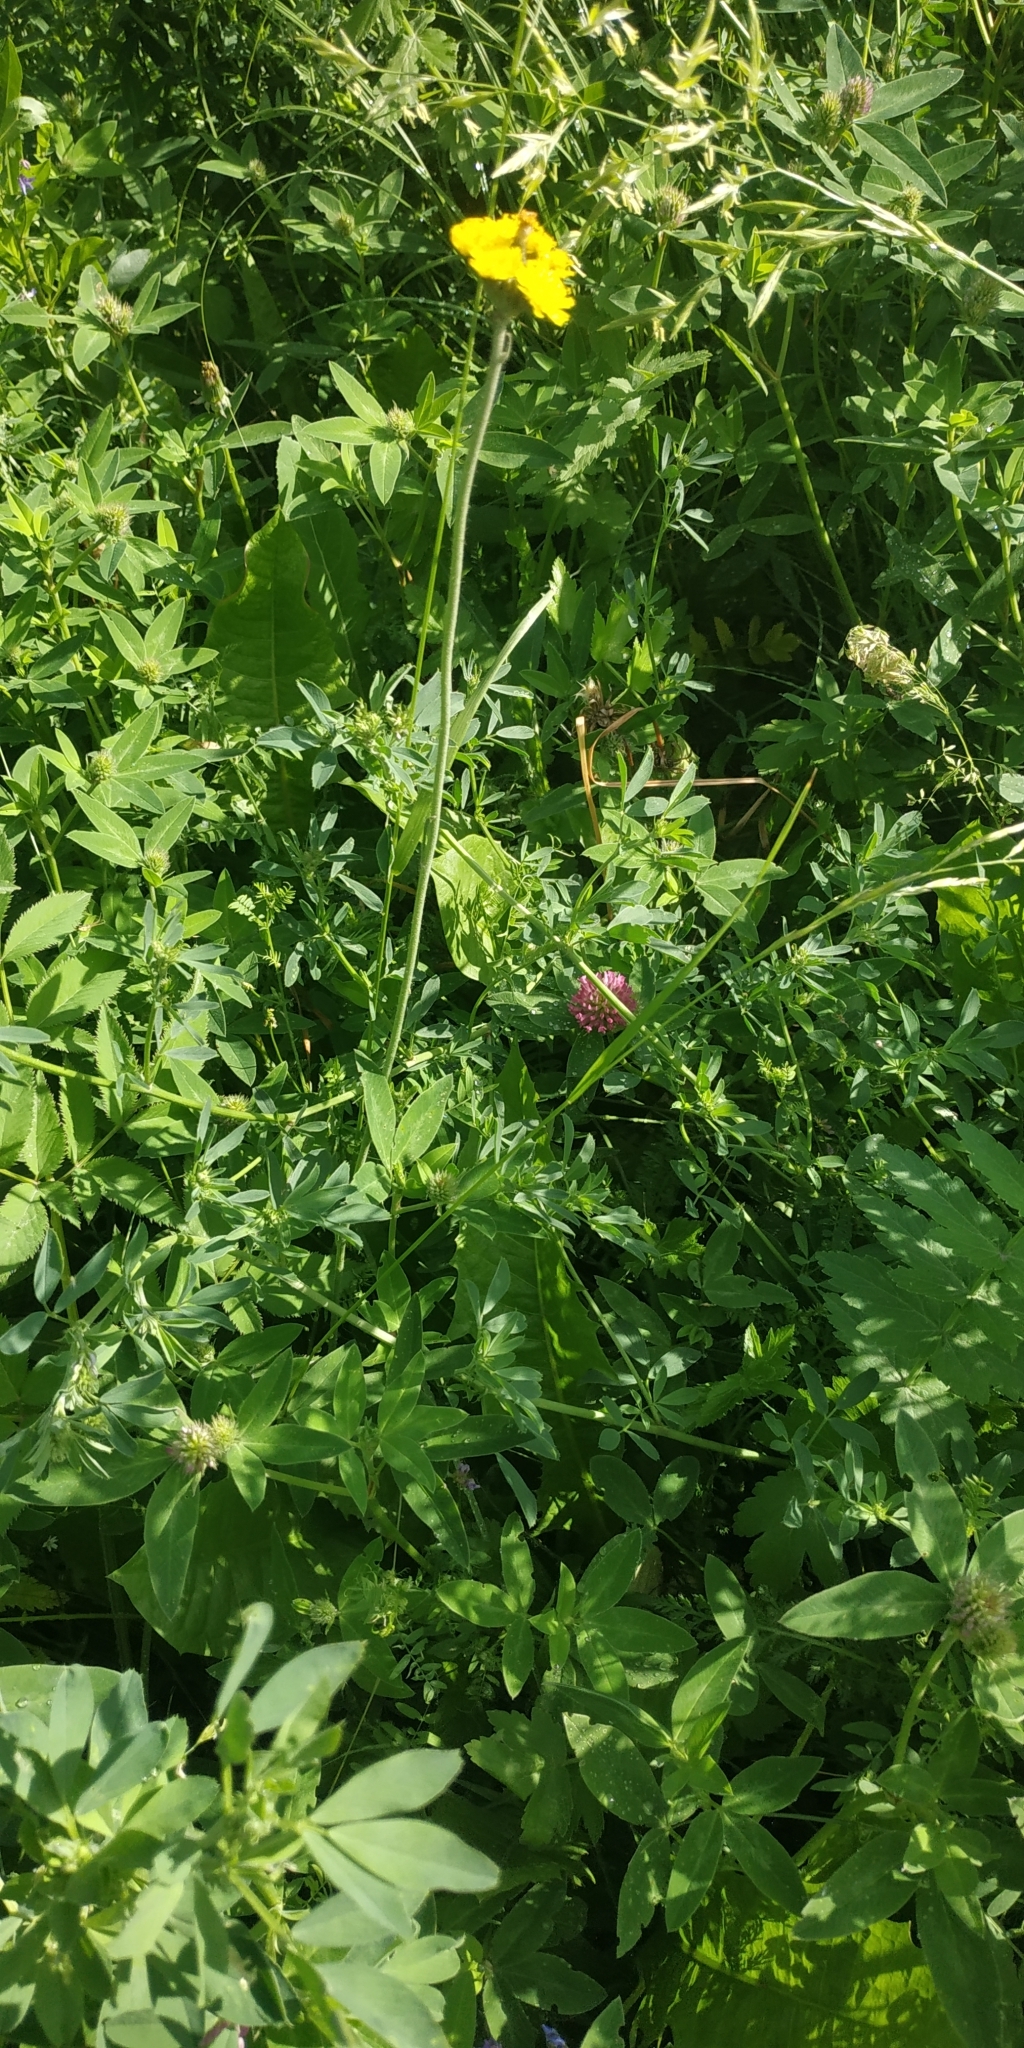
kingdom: Plantae
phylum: Tracheophyta
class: Magnoliopsida
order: Asterales
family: Asteraceae
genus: Pilosella
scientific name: Pilosella densiflora
